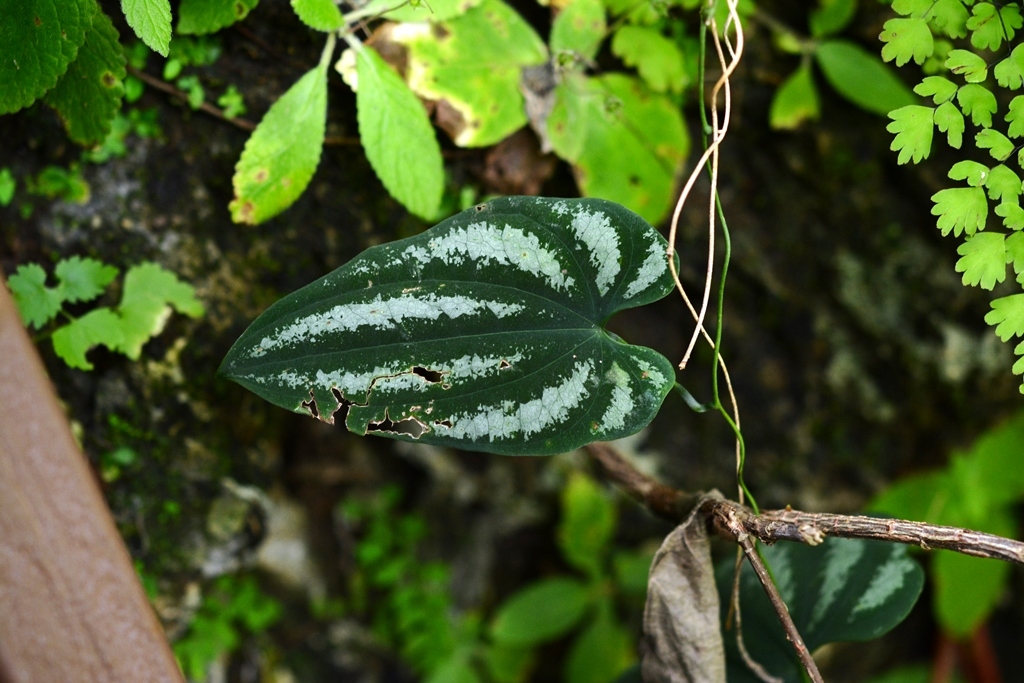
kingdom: Plantae
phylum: Tracheophyta
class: Liliopsida
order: Dioscoreales
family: Dioscoreaceae
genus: Dioscorea
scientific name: Dioscorea cyanisticta
